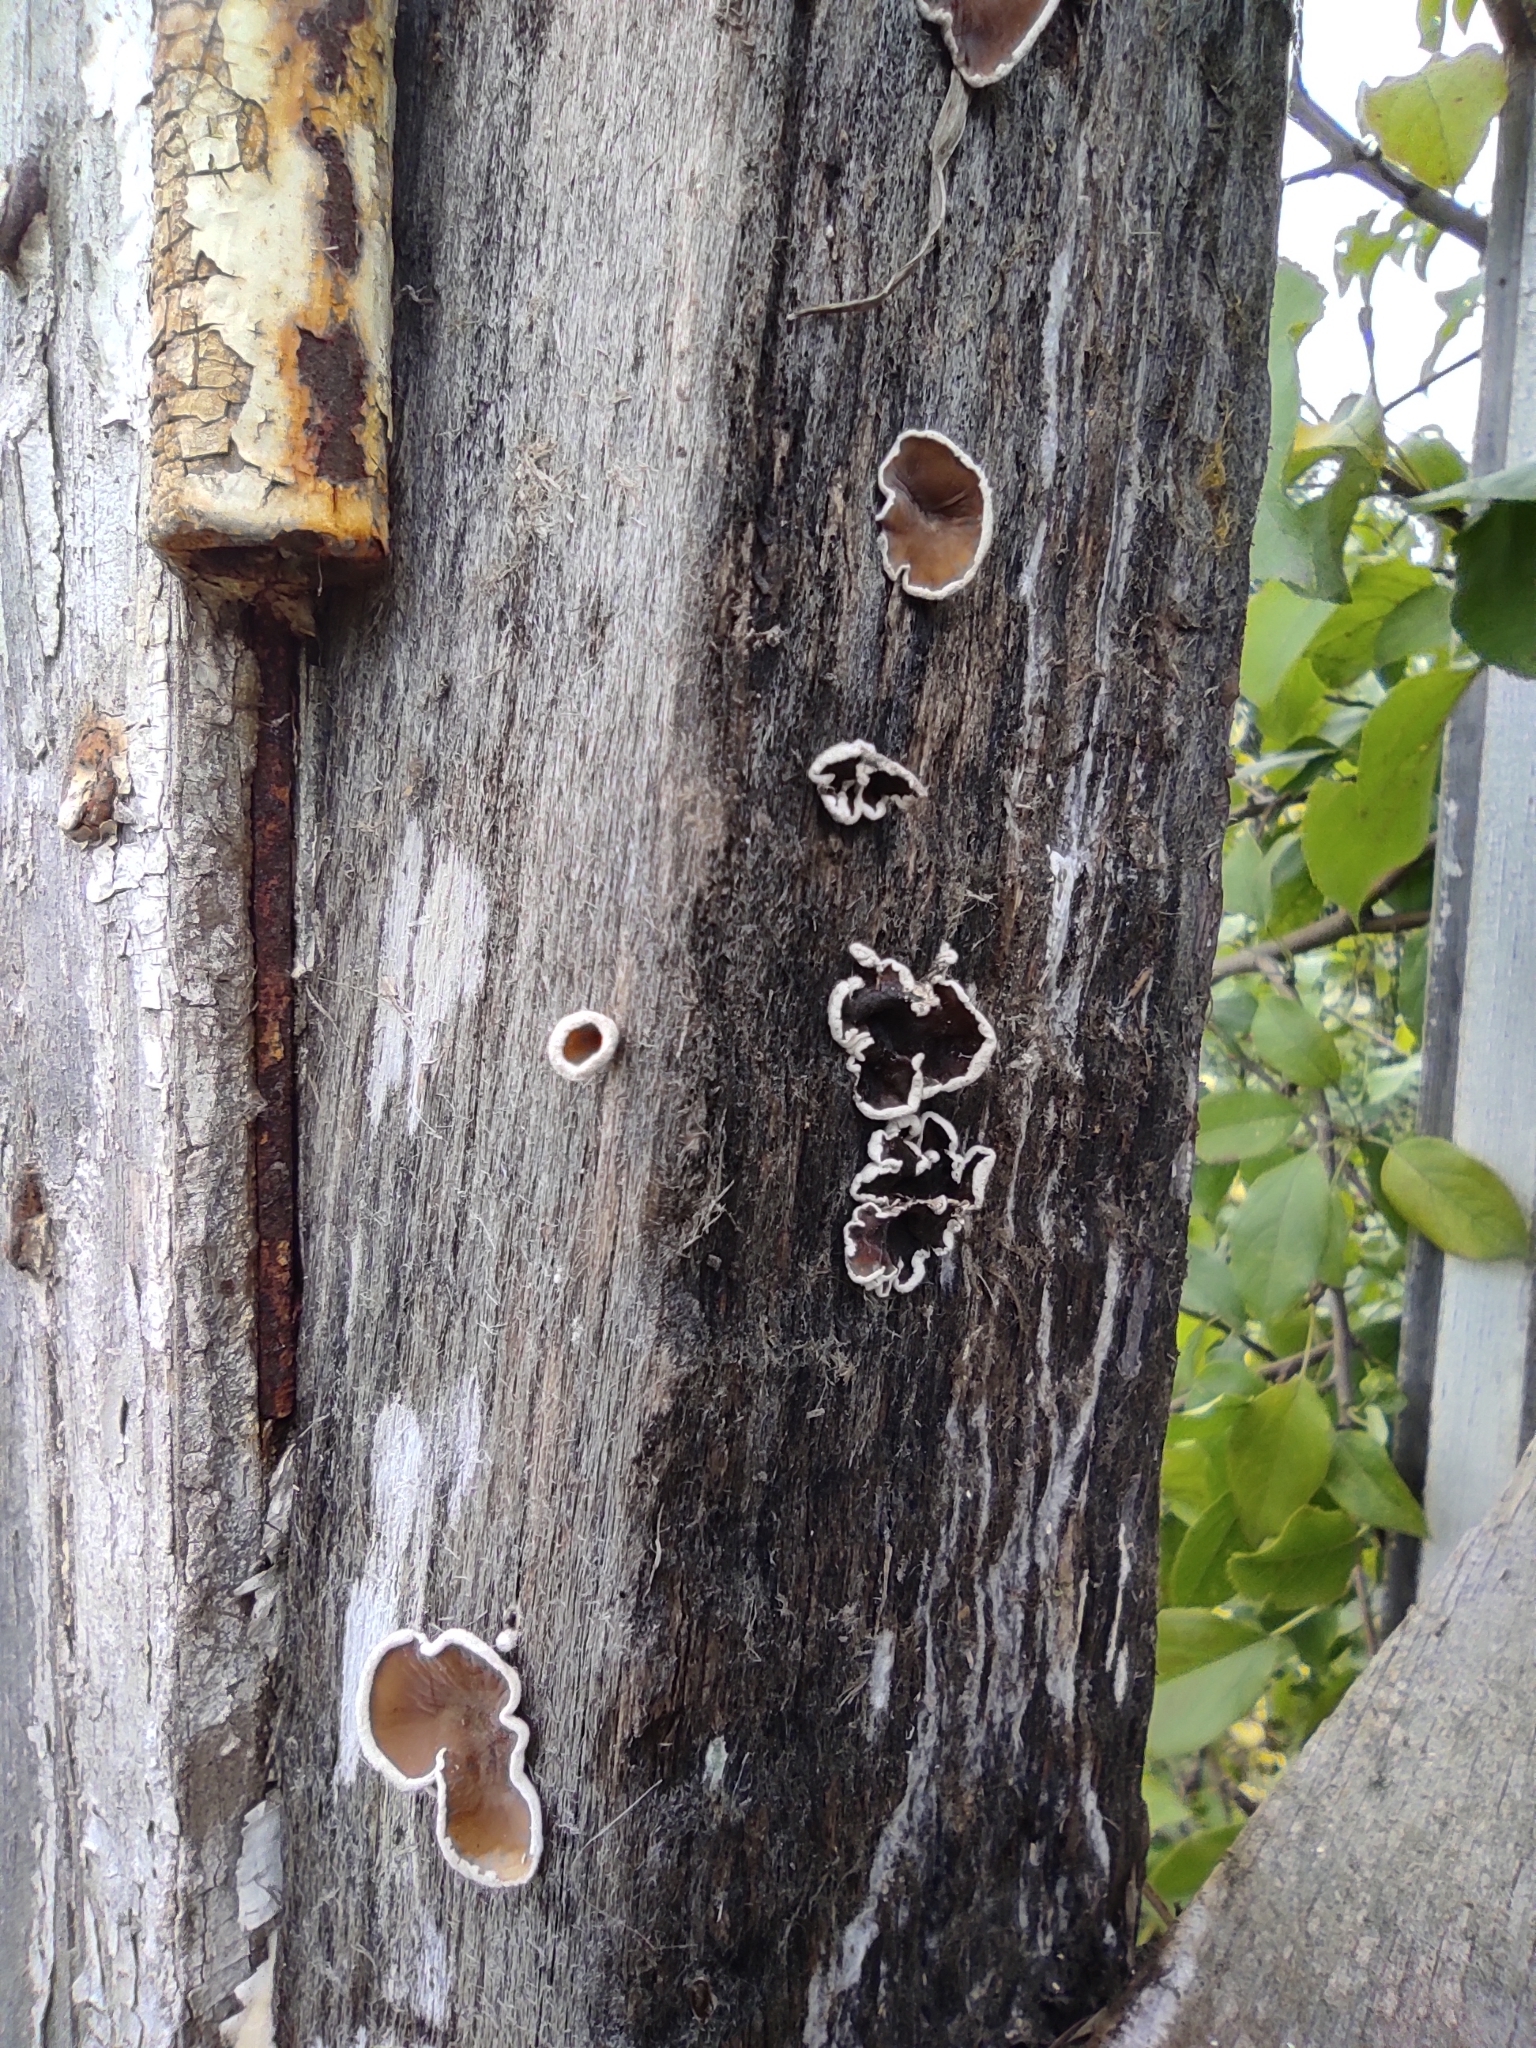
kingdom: Fungi
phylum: Basidiomycota
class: Agaricomycetes
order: Agaricales
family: Schizophyllaceae
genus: Schizophyllum
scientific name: Schizophyllum amplum
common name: Poplar bells
